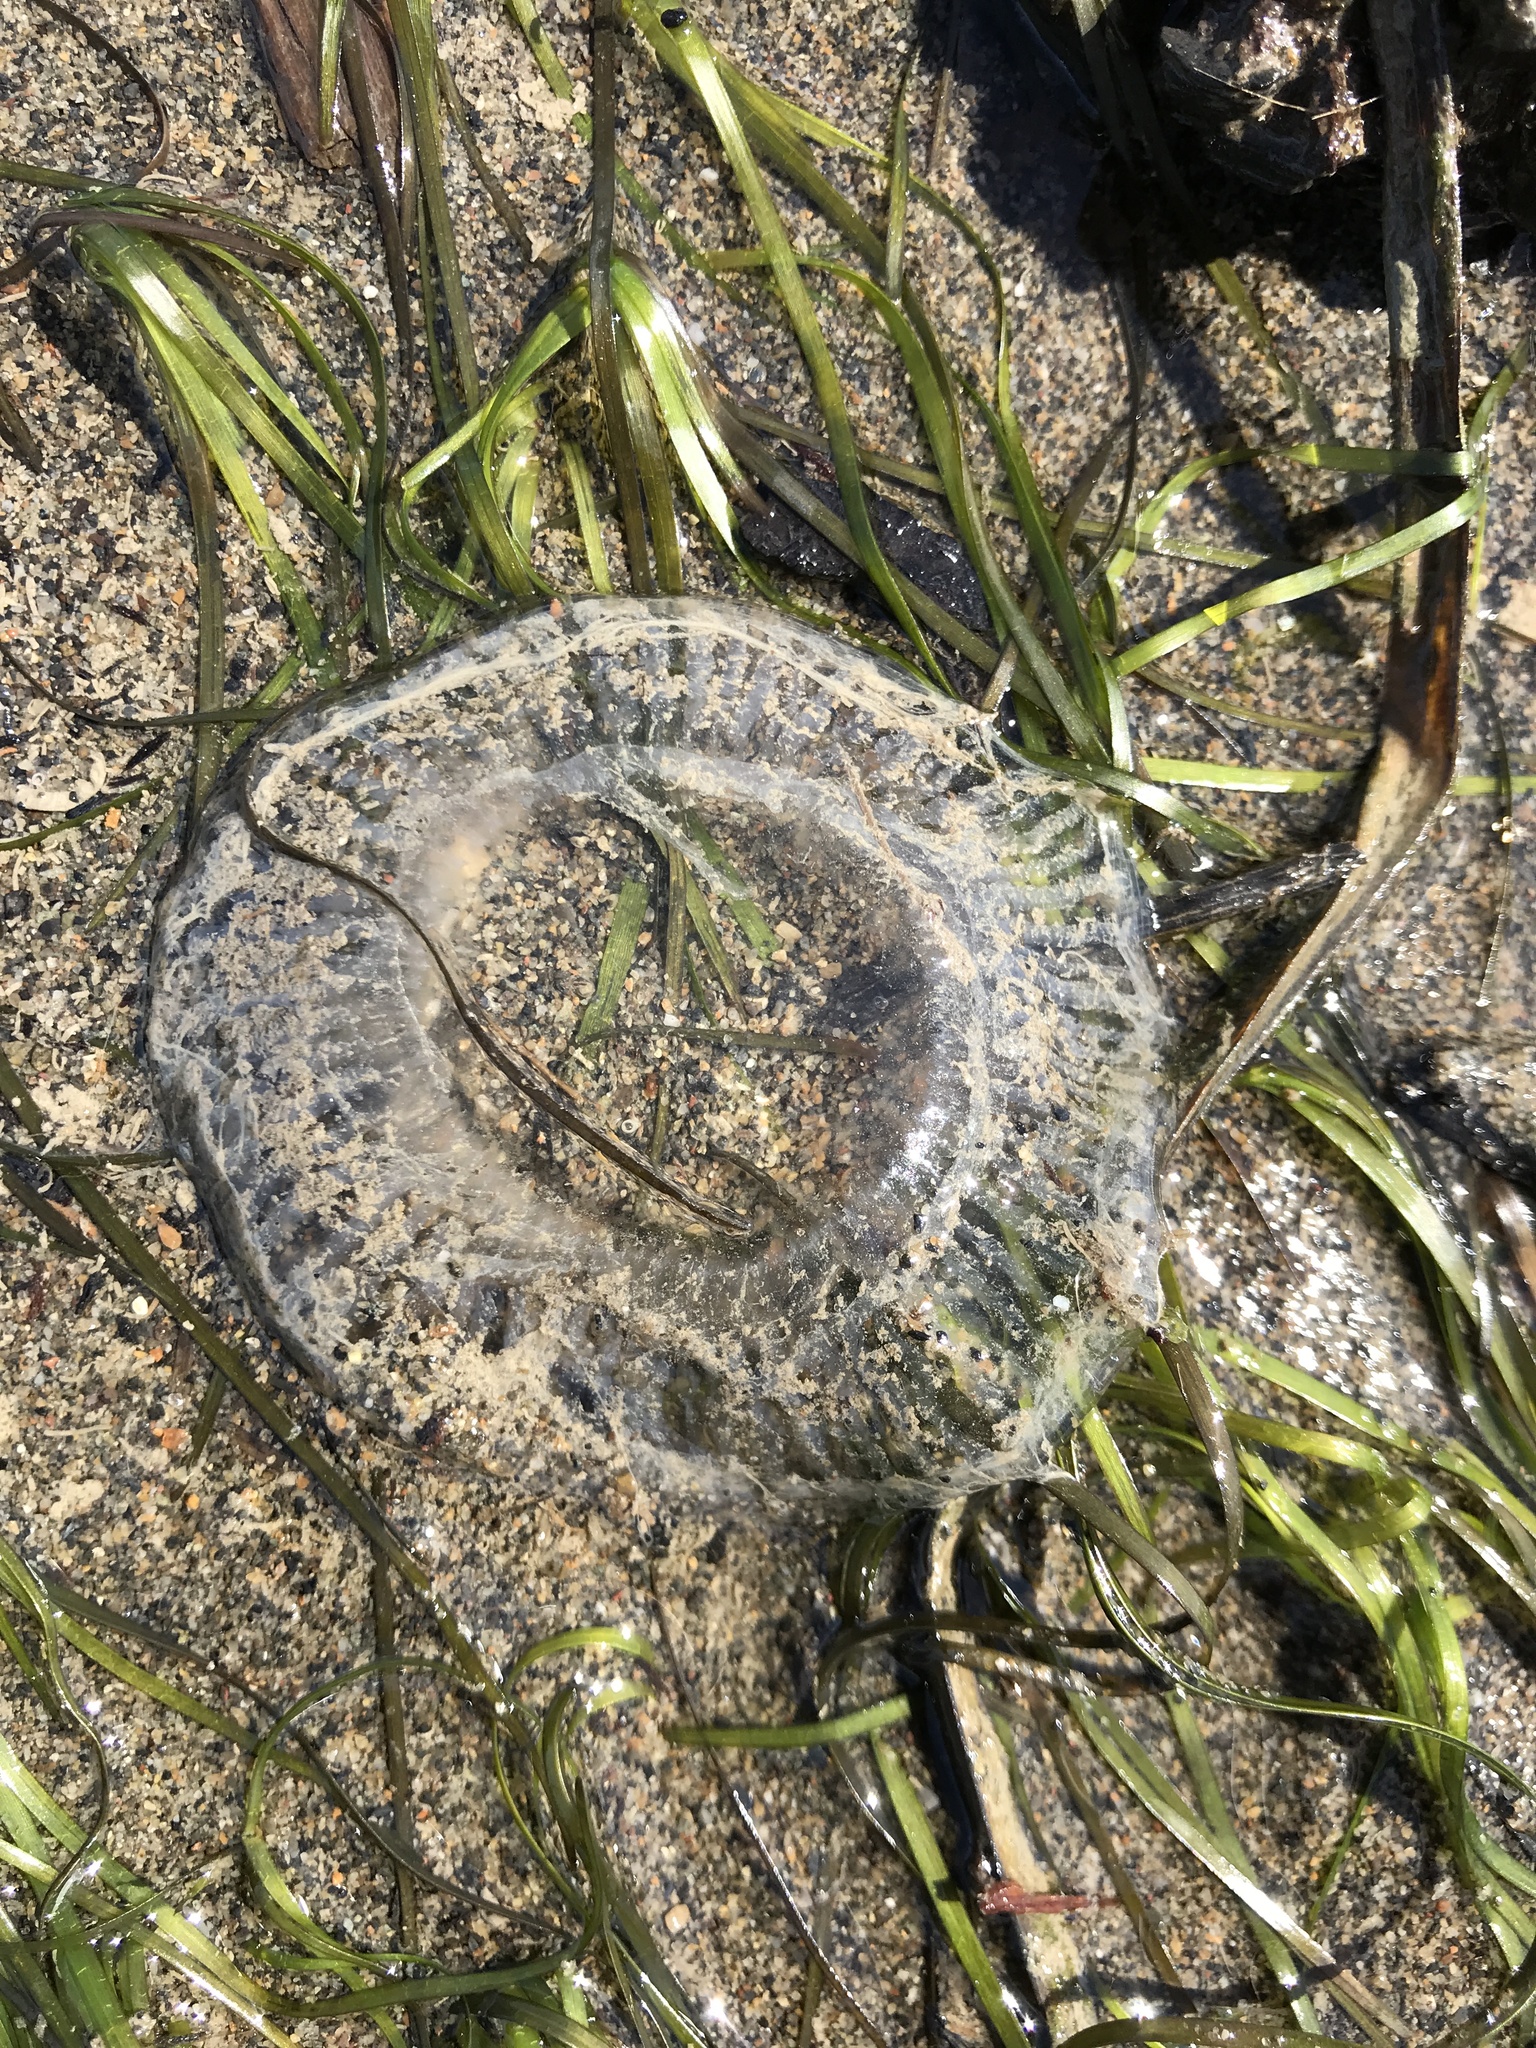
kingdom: Animalia
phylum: Cnidaria
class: Hydrozoa
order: Leptothecata
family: Aequoreidae
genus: Aequorea
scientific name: Aequorea victoria
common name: Water jellyfish
